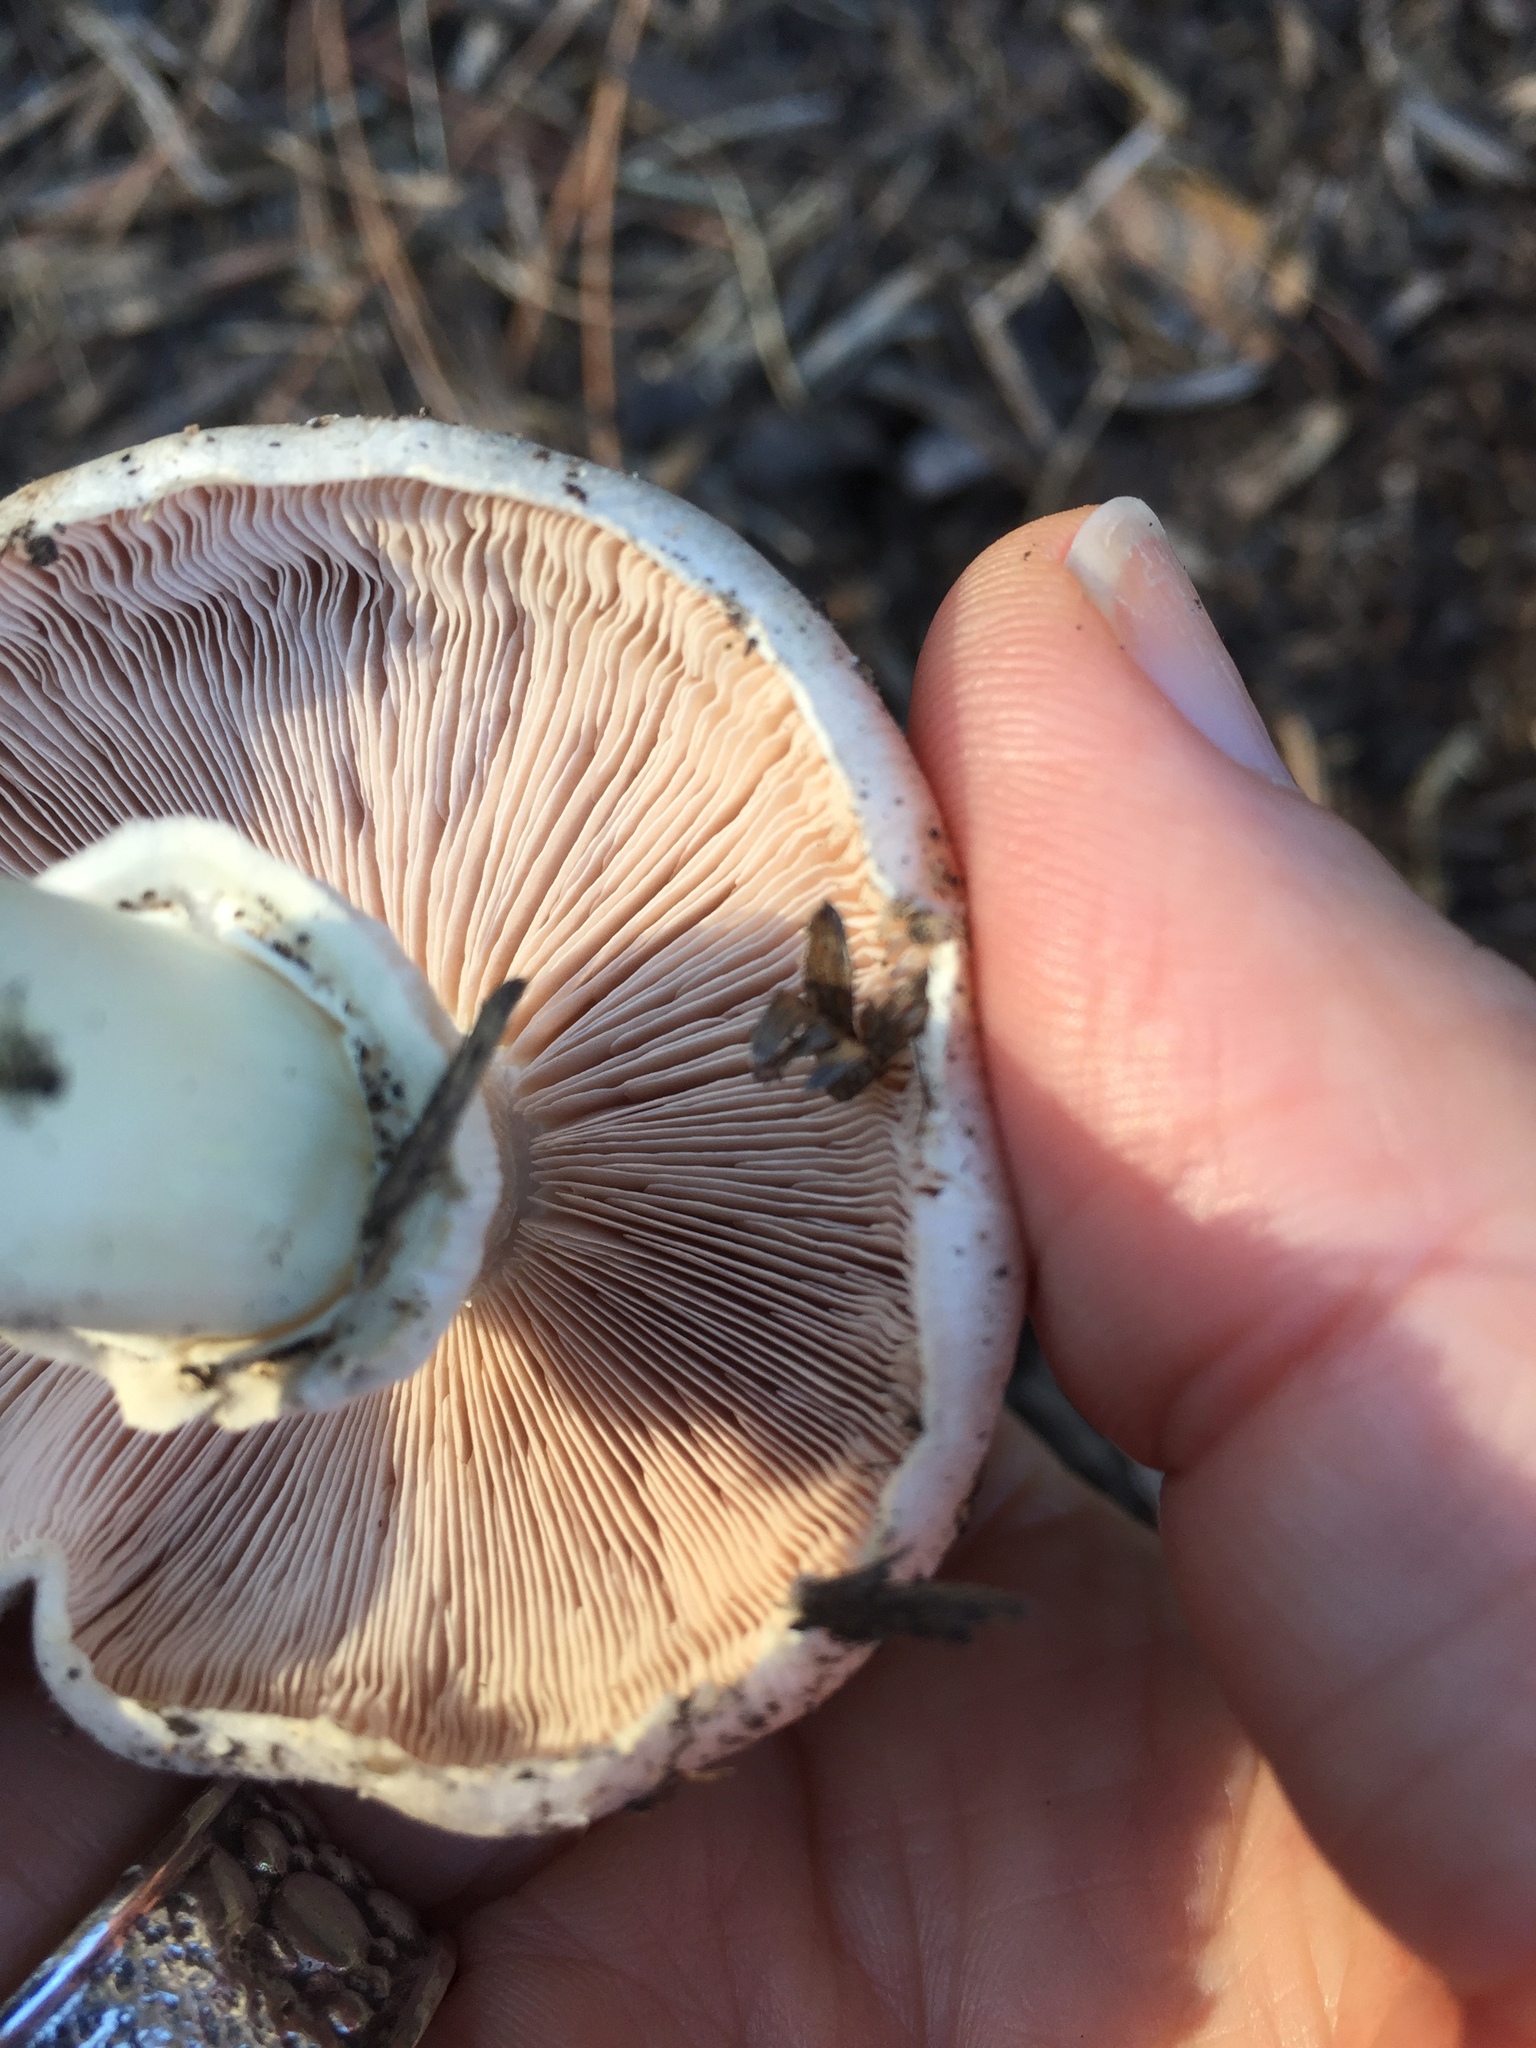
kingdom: Fungi
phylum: Basidiomycota
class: Agaricomycetes
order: Agaricales
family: Agaricaceae
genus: Agaricus
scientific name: Agaricus californicus
